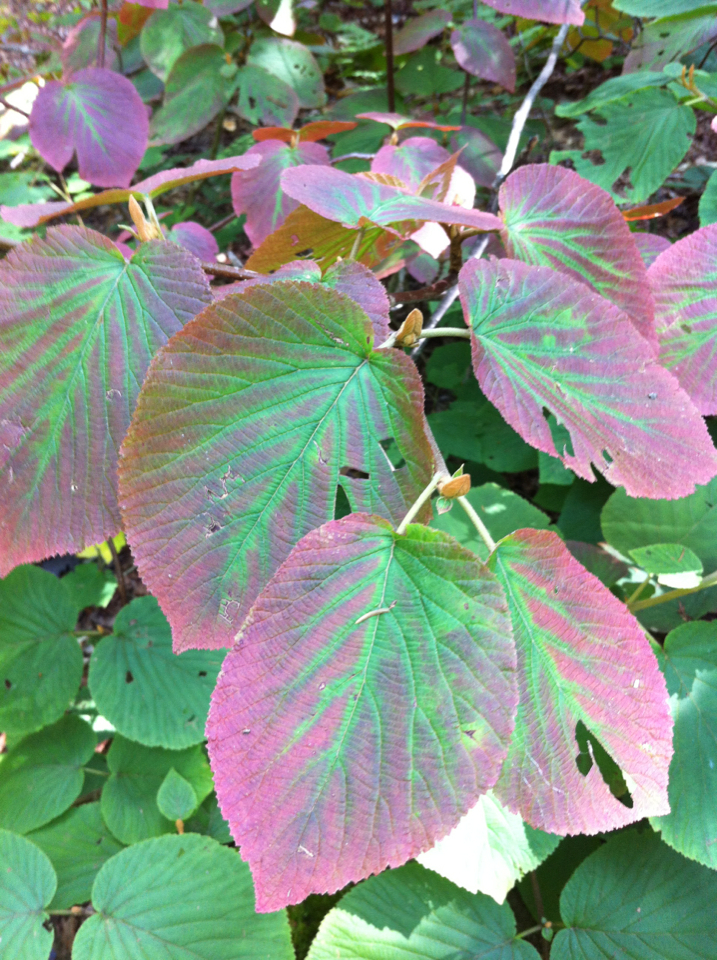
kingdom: Plantae
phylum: Tracheophyta
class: Magnoliopsida
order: Dipsacales
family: Viburnaceae
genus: Viburnum
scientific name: Viburnum lantanoides
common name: Hobblebush
